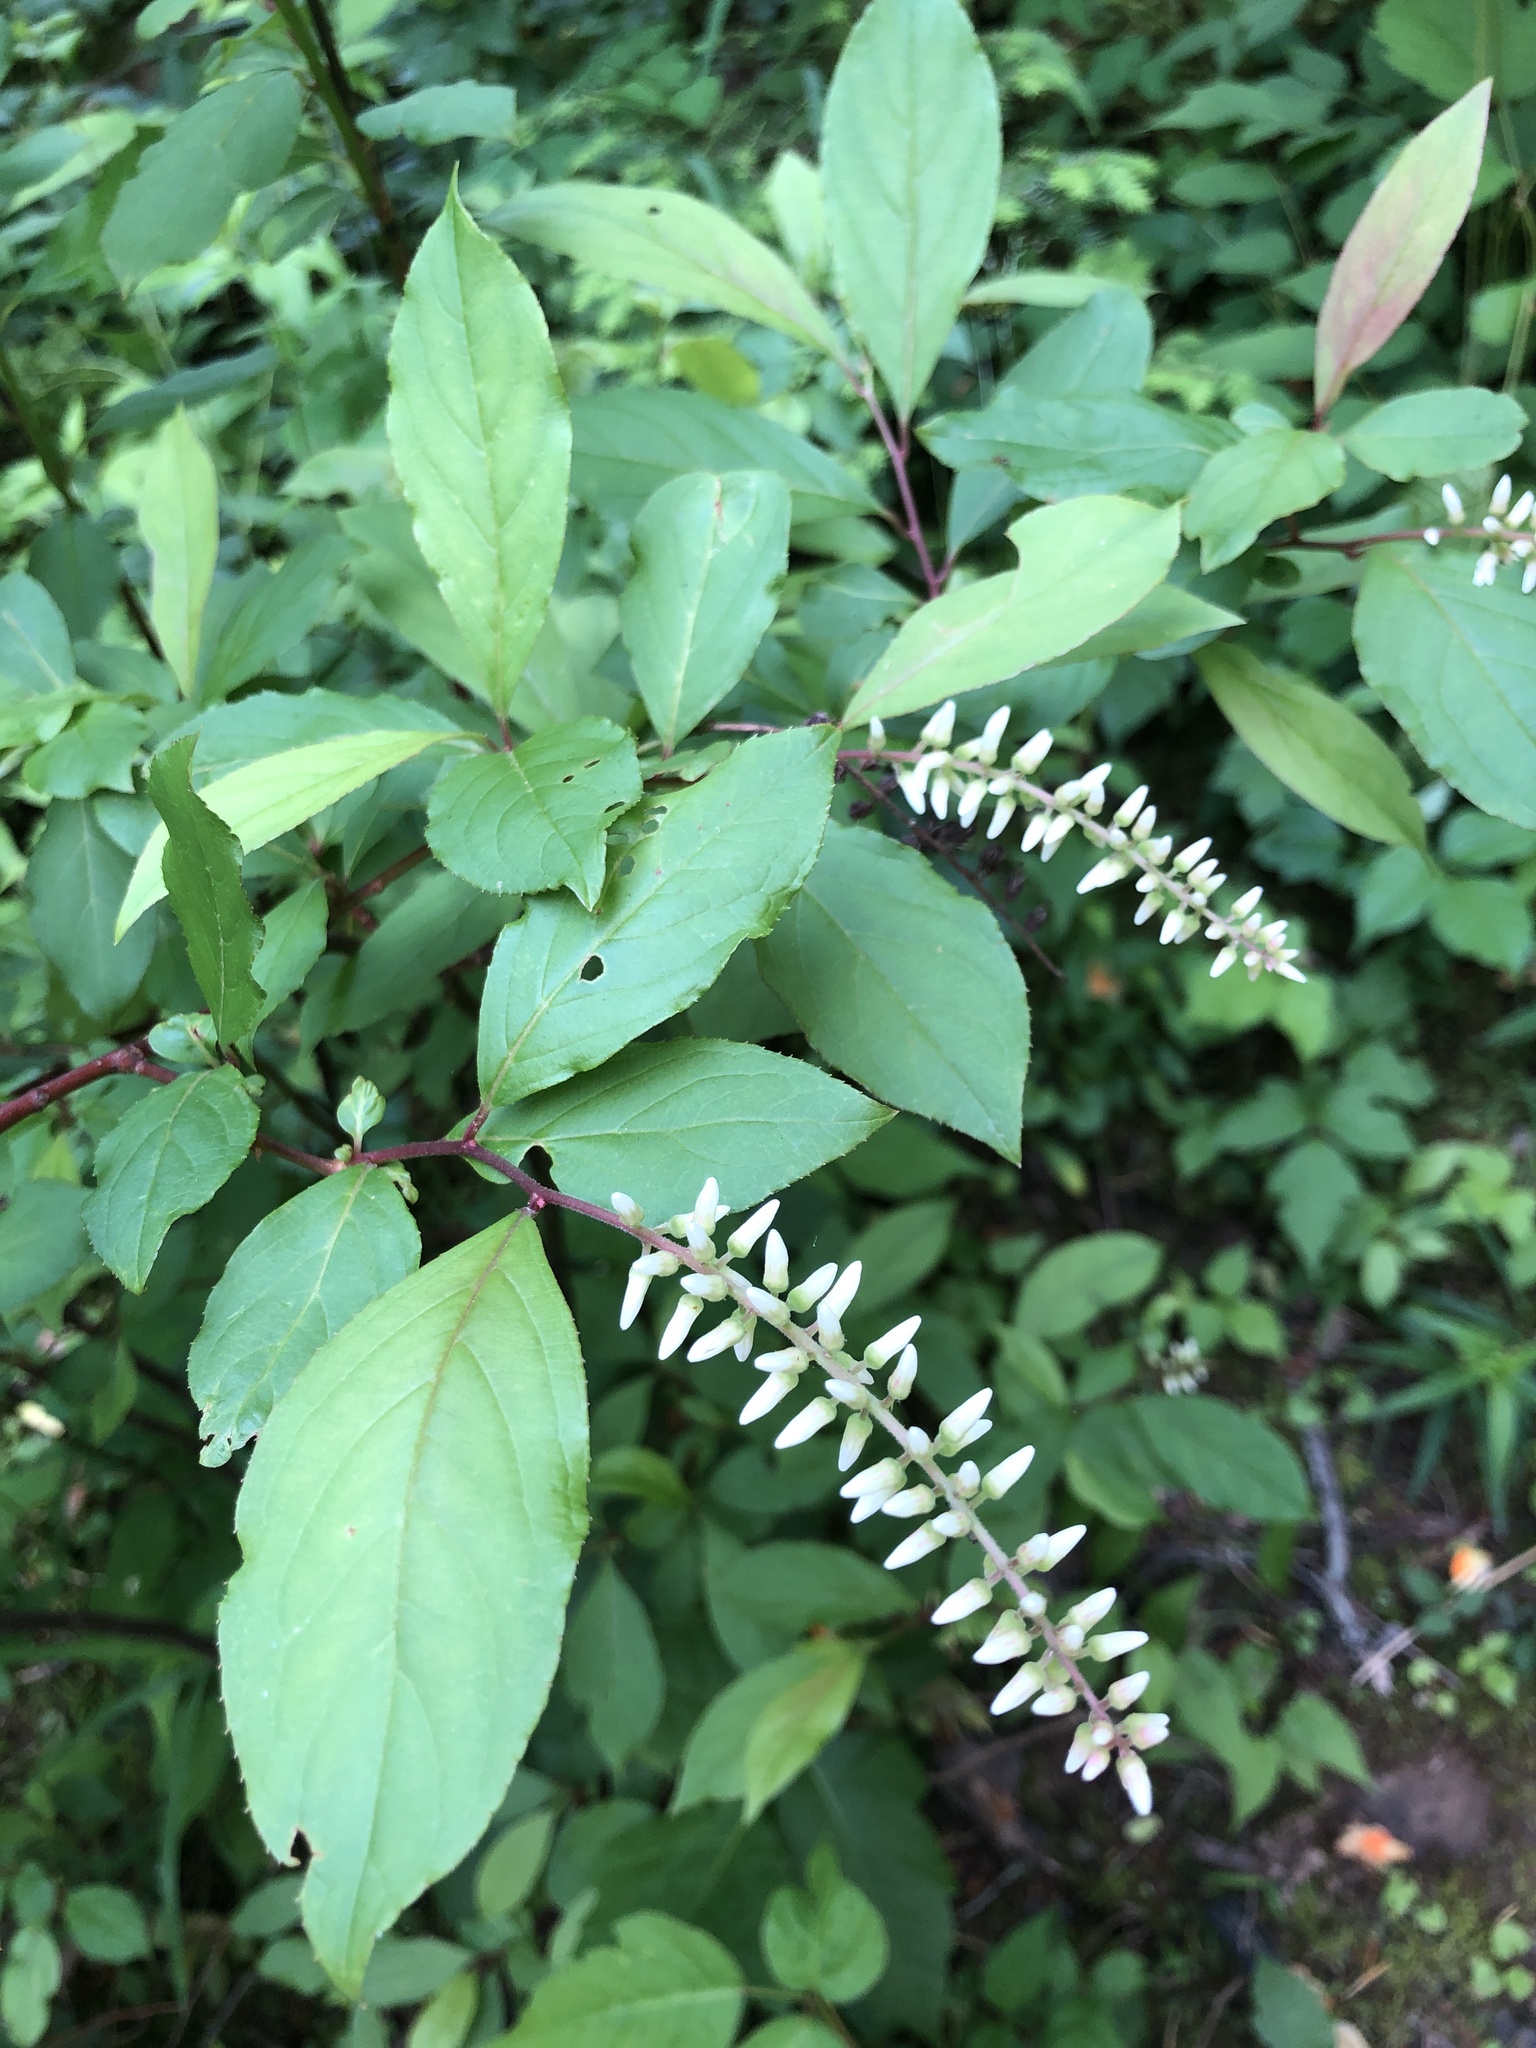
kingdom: Plantae
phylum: Tracheophyta
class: Magnoliopsida
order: Saxifragales
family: Iteaceae
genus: Itea
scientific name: Itea virginica
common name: Sweetspire
